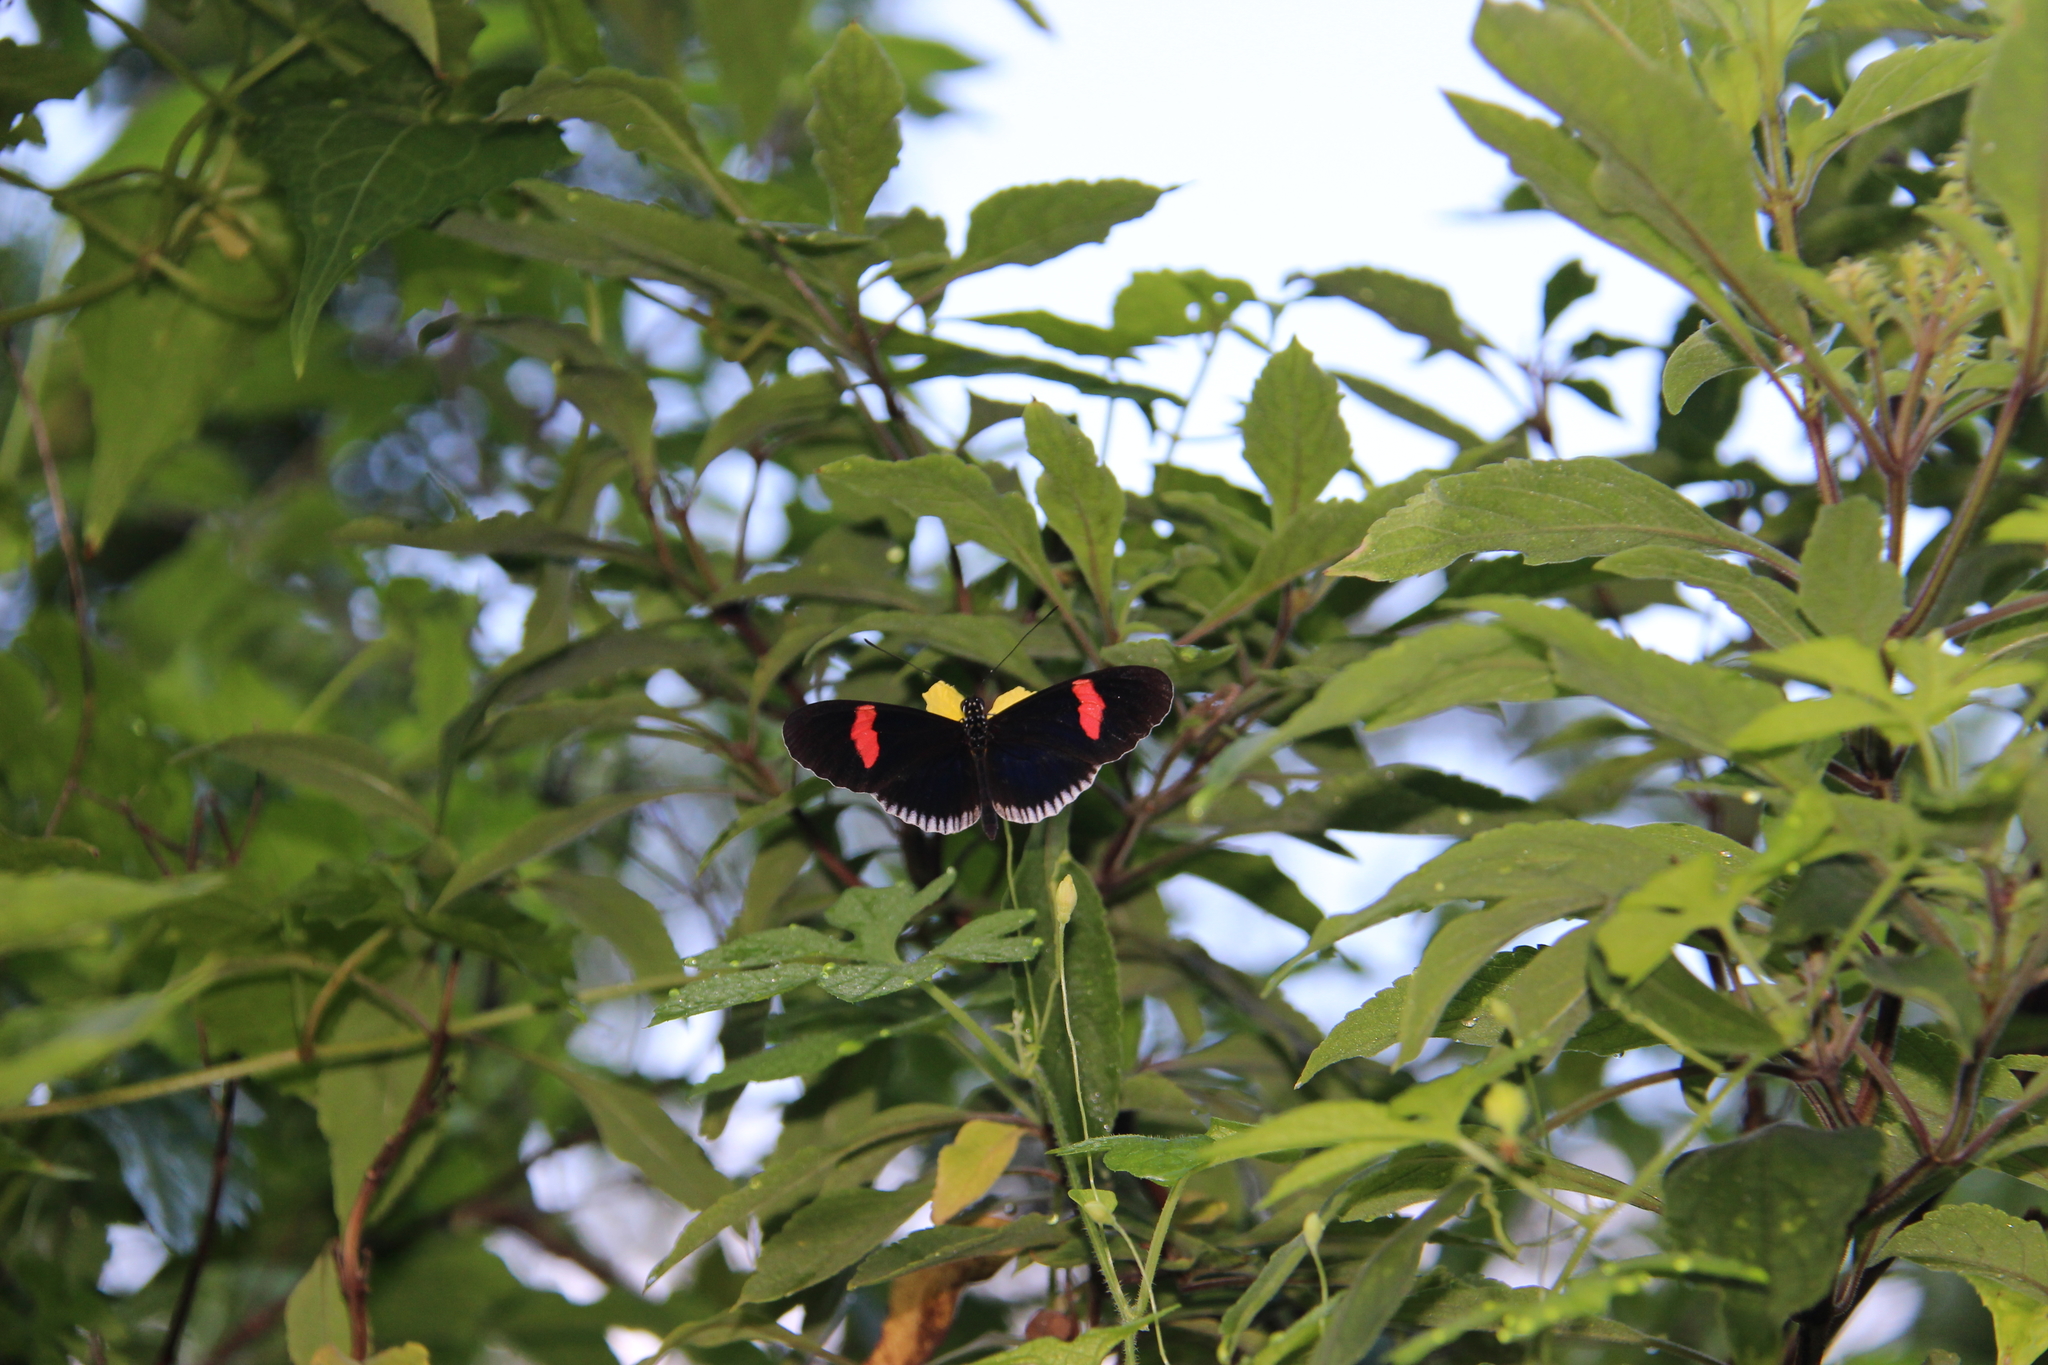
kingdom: Animalia
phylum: Arthropoda
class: Insecta
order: Lepidoptera
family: Nymphalidae
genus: Heliconius
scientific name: Heliconius erato
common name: Common patch longwing
